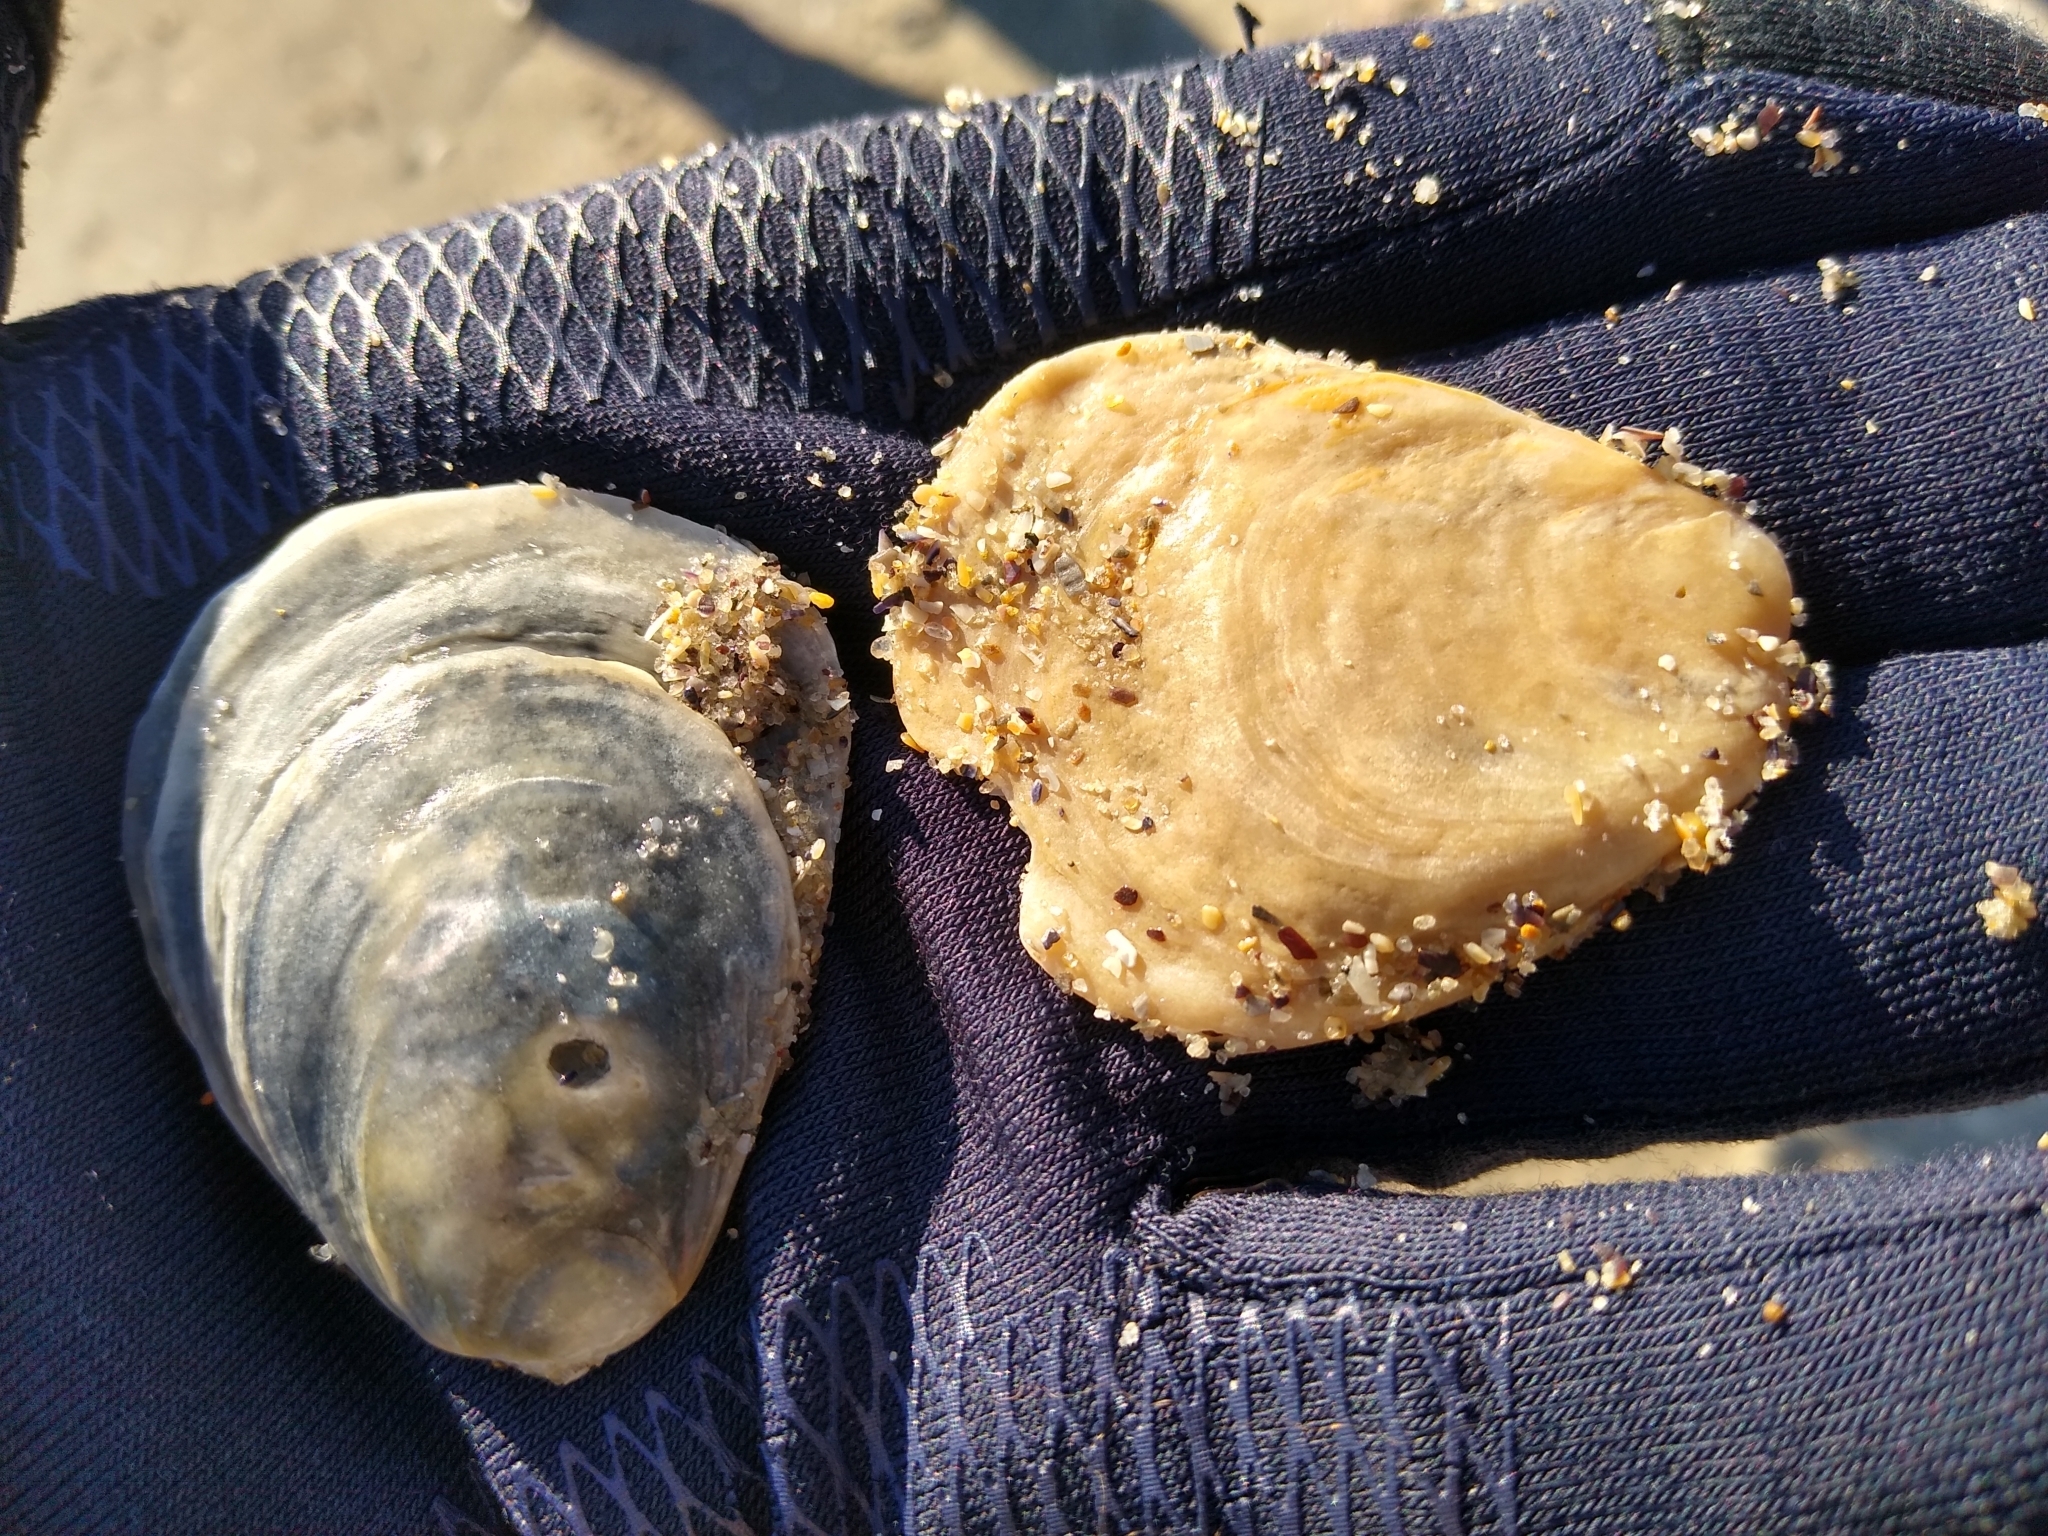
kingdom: Animalia
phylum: Mollusca
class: Bivalvia
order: Ostreida
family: Ostreidae
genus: Ostrea
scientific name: Ostrea edulis
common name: Flat oyster
